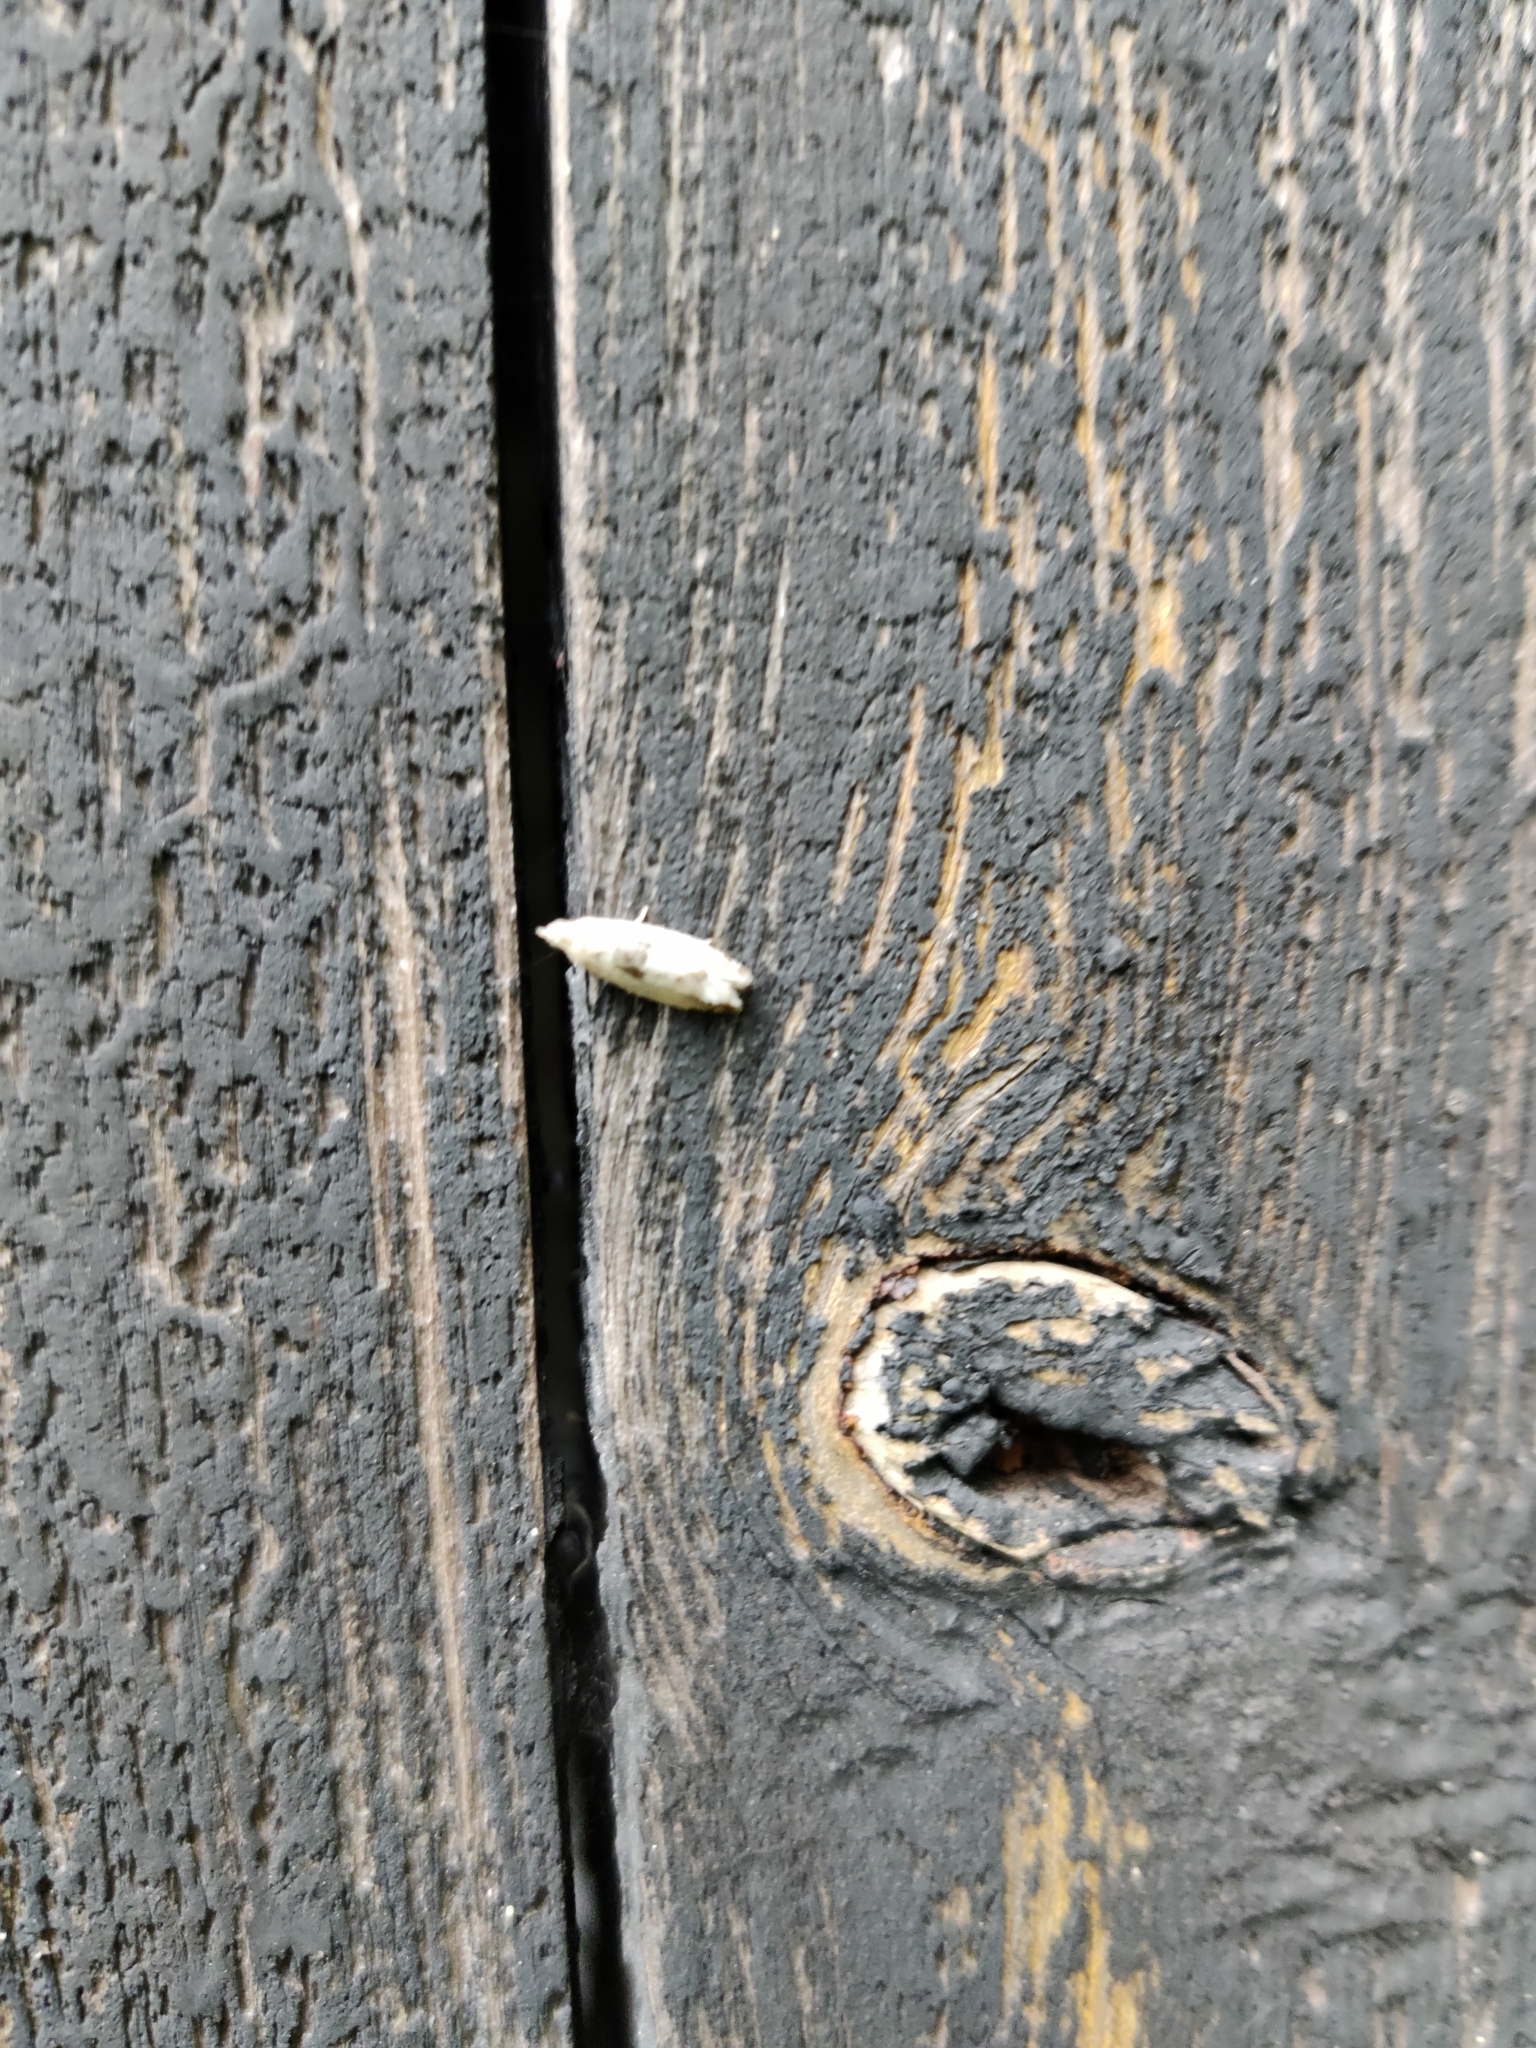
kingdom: Animalia
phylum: Arthropoda
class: Insecta
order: Lepidoptera
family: Tortricidae
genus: Epinotia
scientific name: Epinotia ramella
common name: Small birch bell
